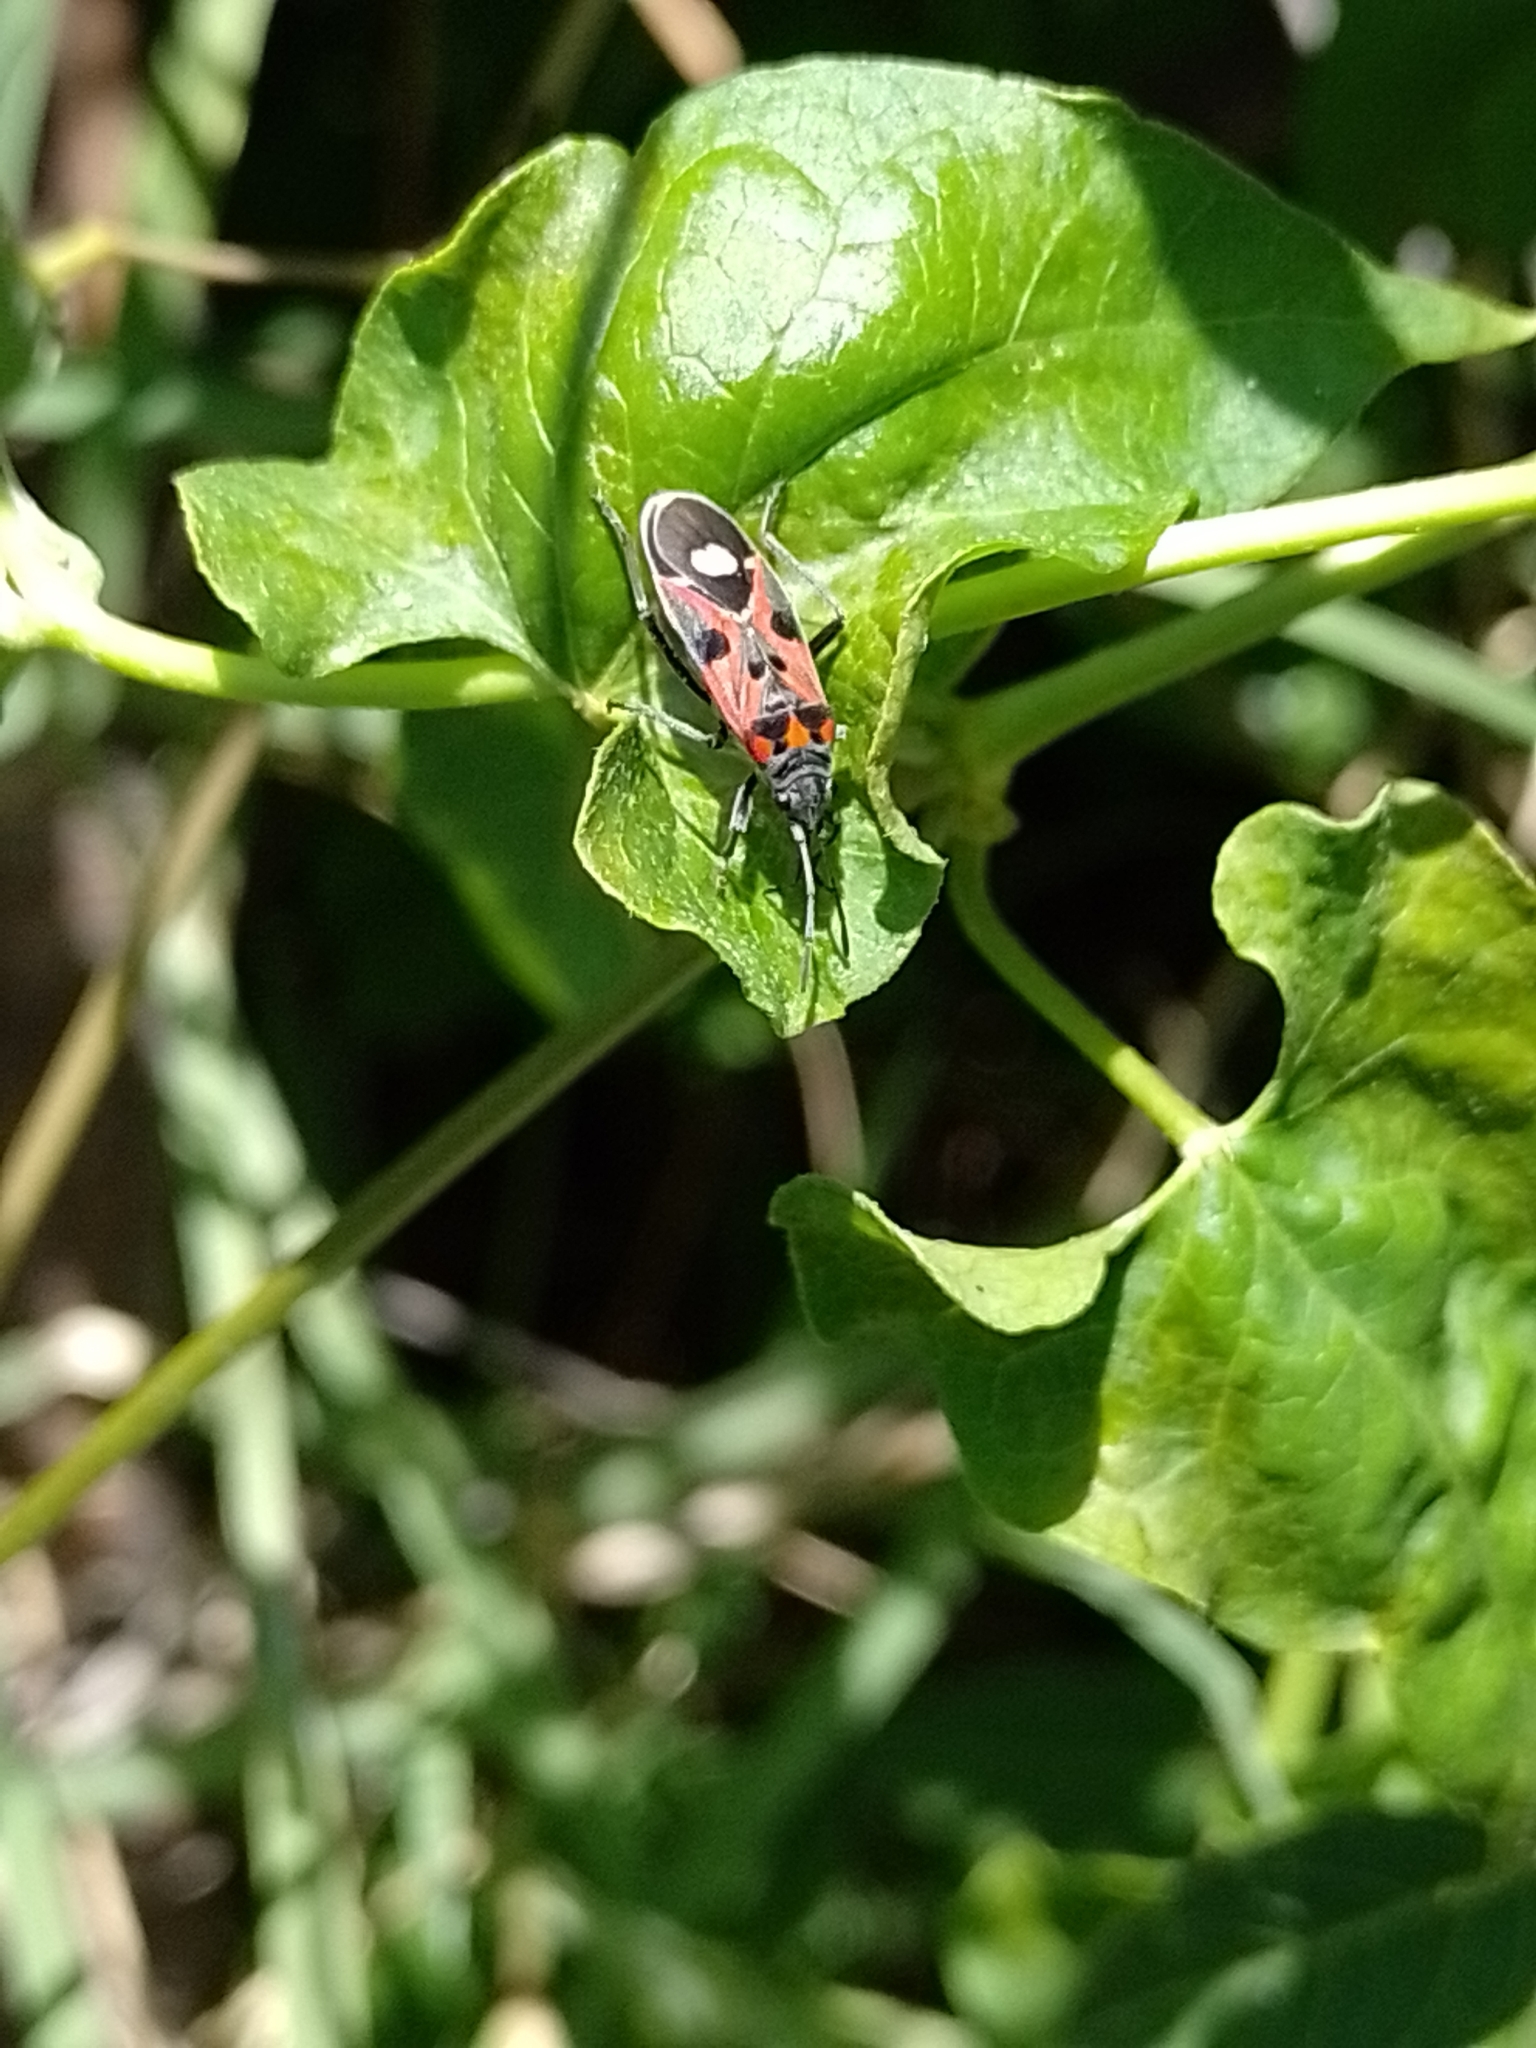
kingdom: Animalia
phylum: Arthropoda
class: Insecta
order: Hemiptera
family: Lygaeidae
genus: Lygaeus
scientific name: Lygaeus alboornatus
